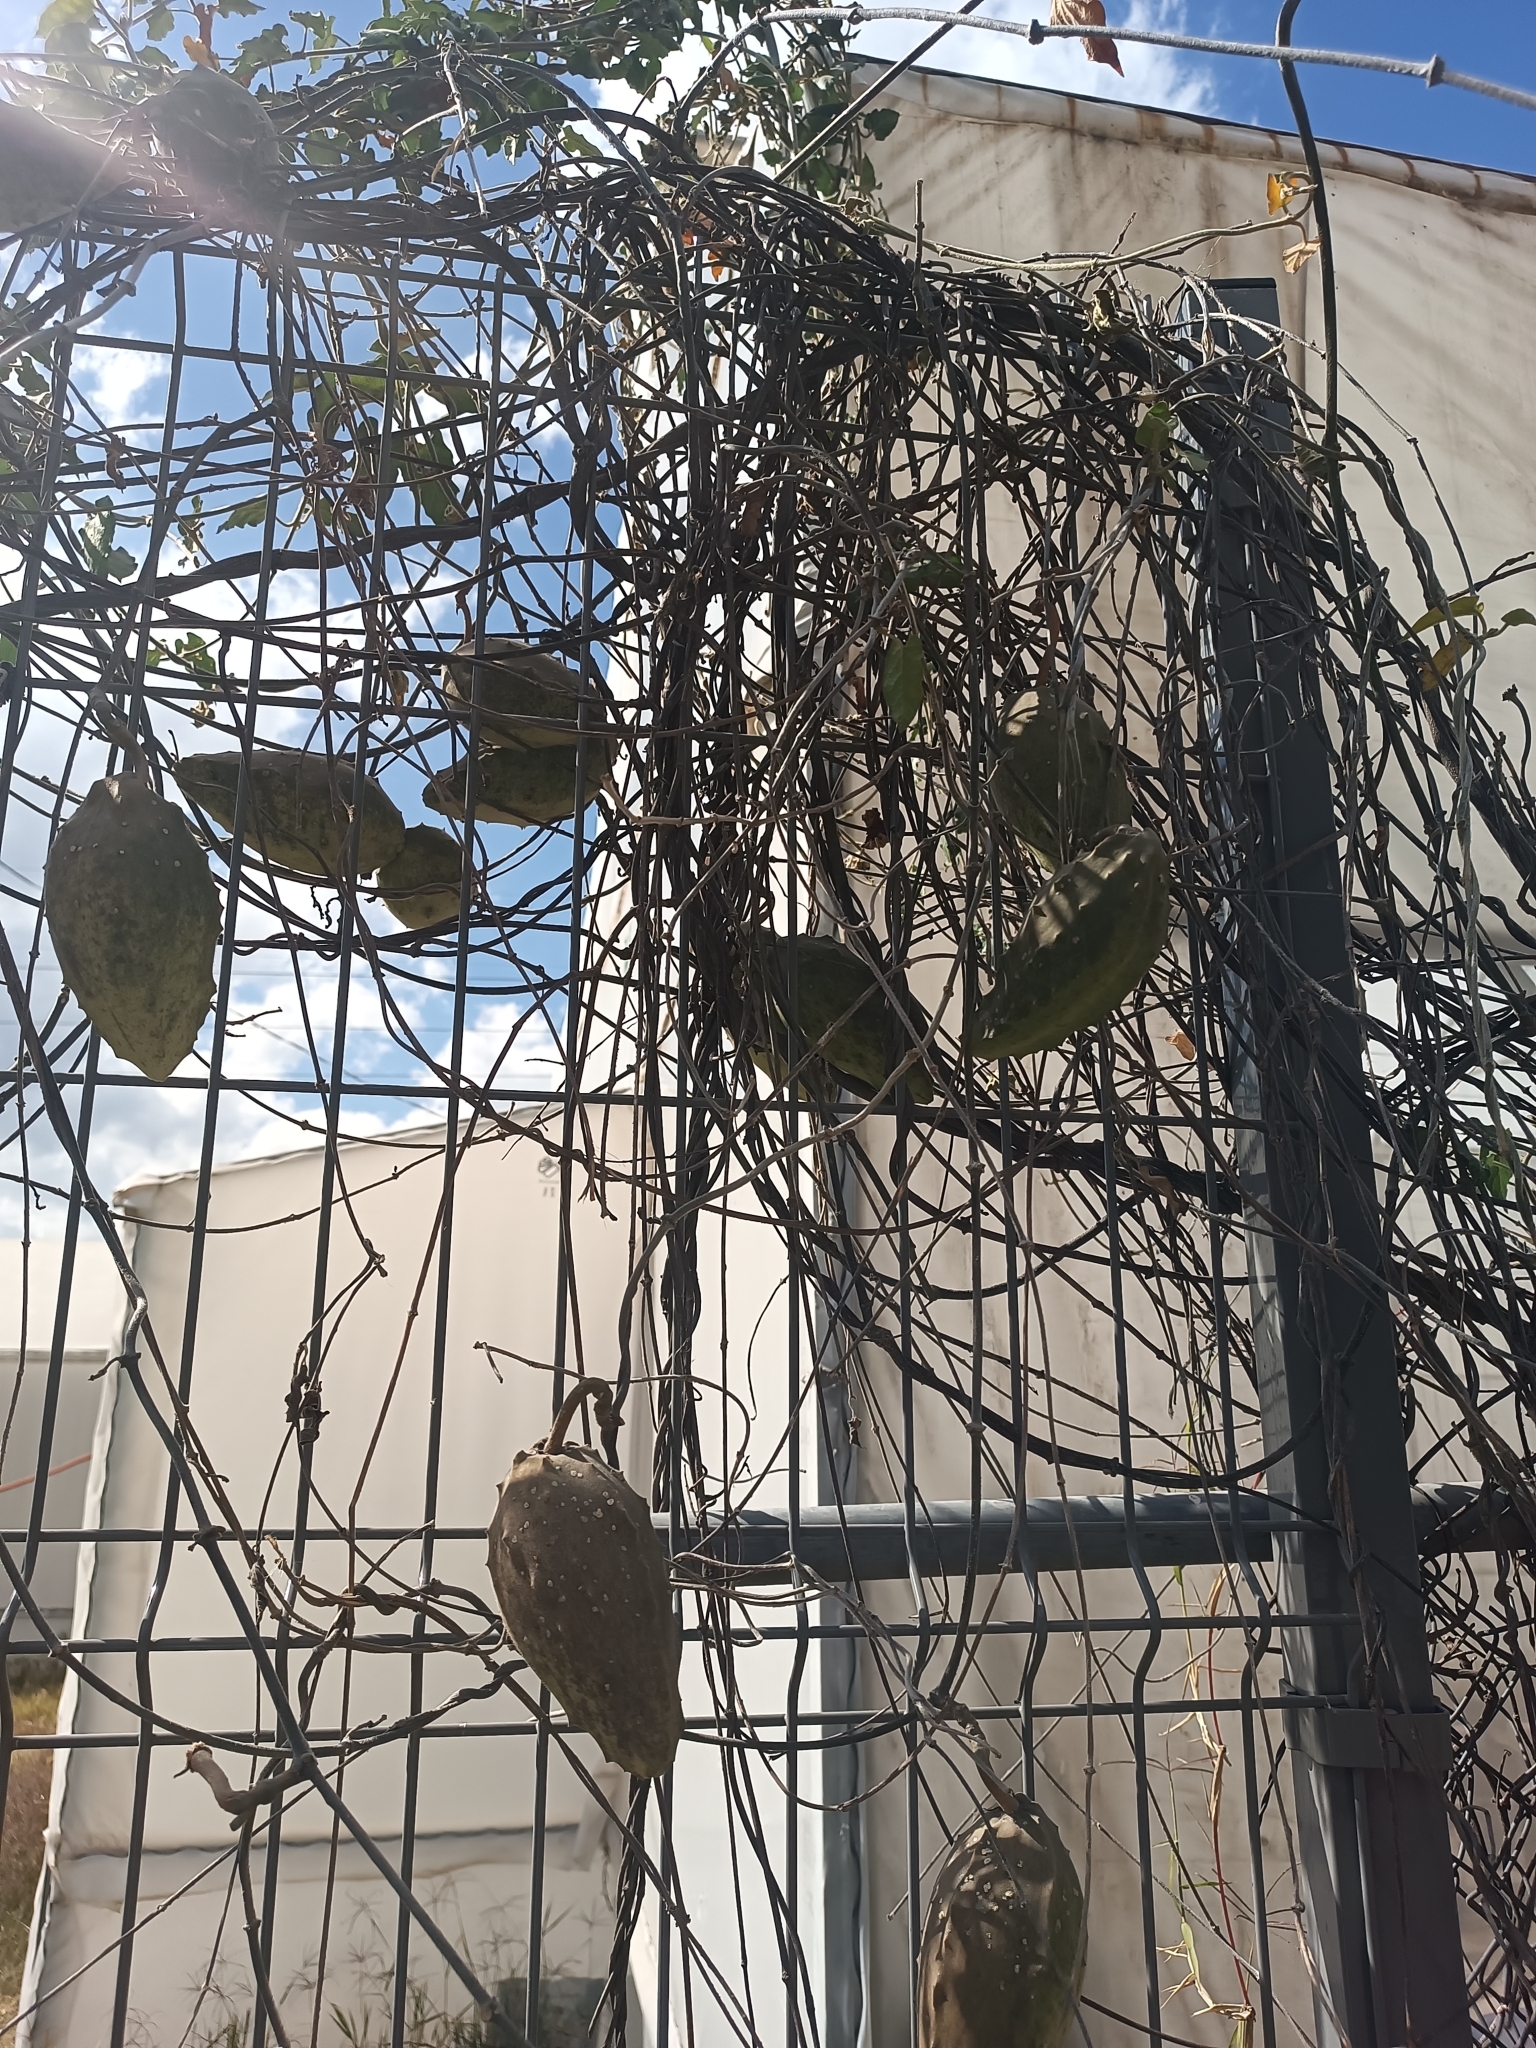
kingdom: Plantae
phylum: Tracheophyta
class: Magnoliopsida
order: Gentianales
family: Apocynaceae
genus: Gonolobus
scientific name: Gonolobus grandiflorus
